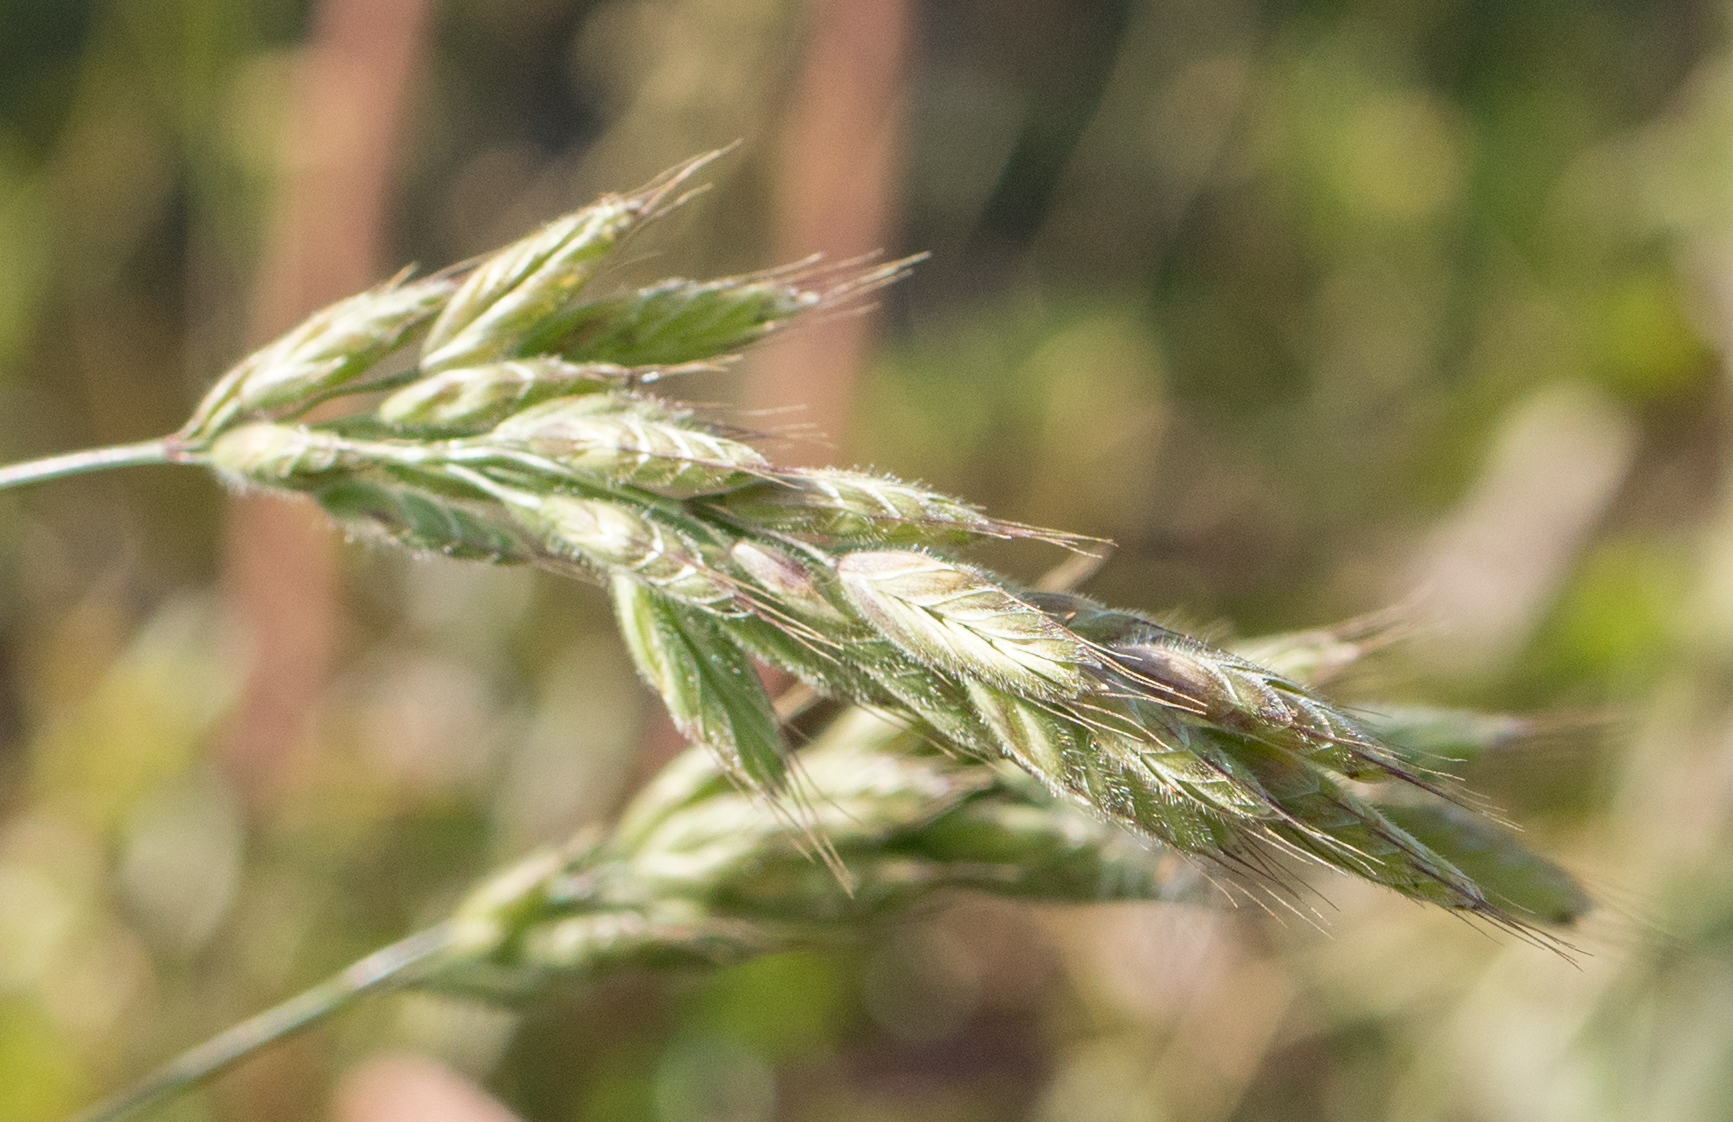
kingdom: Plantae
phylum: Tracheophyta
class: Liliopsida
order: Poales
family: Poaceae
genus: Bromus
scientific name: Bromus hordeaceus
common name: Soft brome
